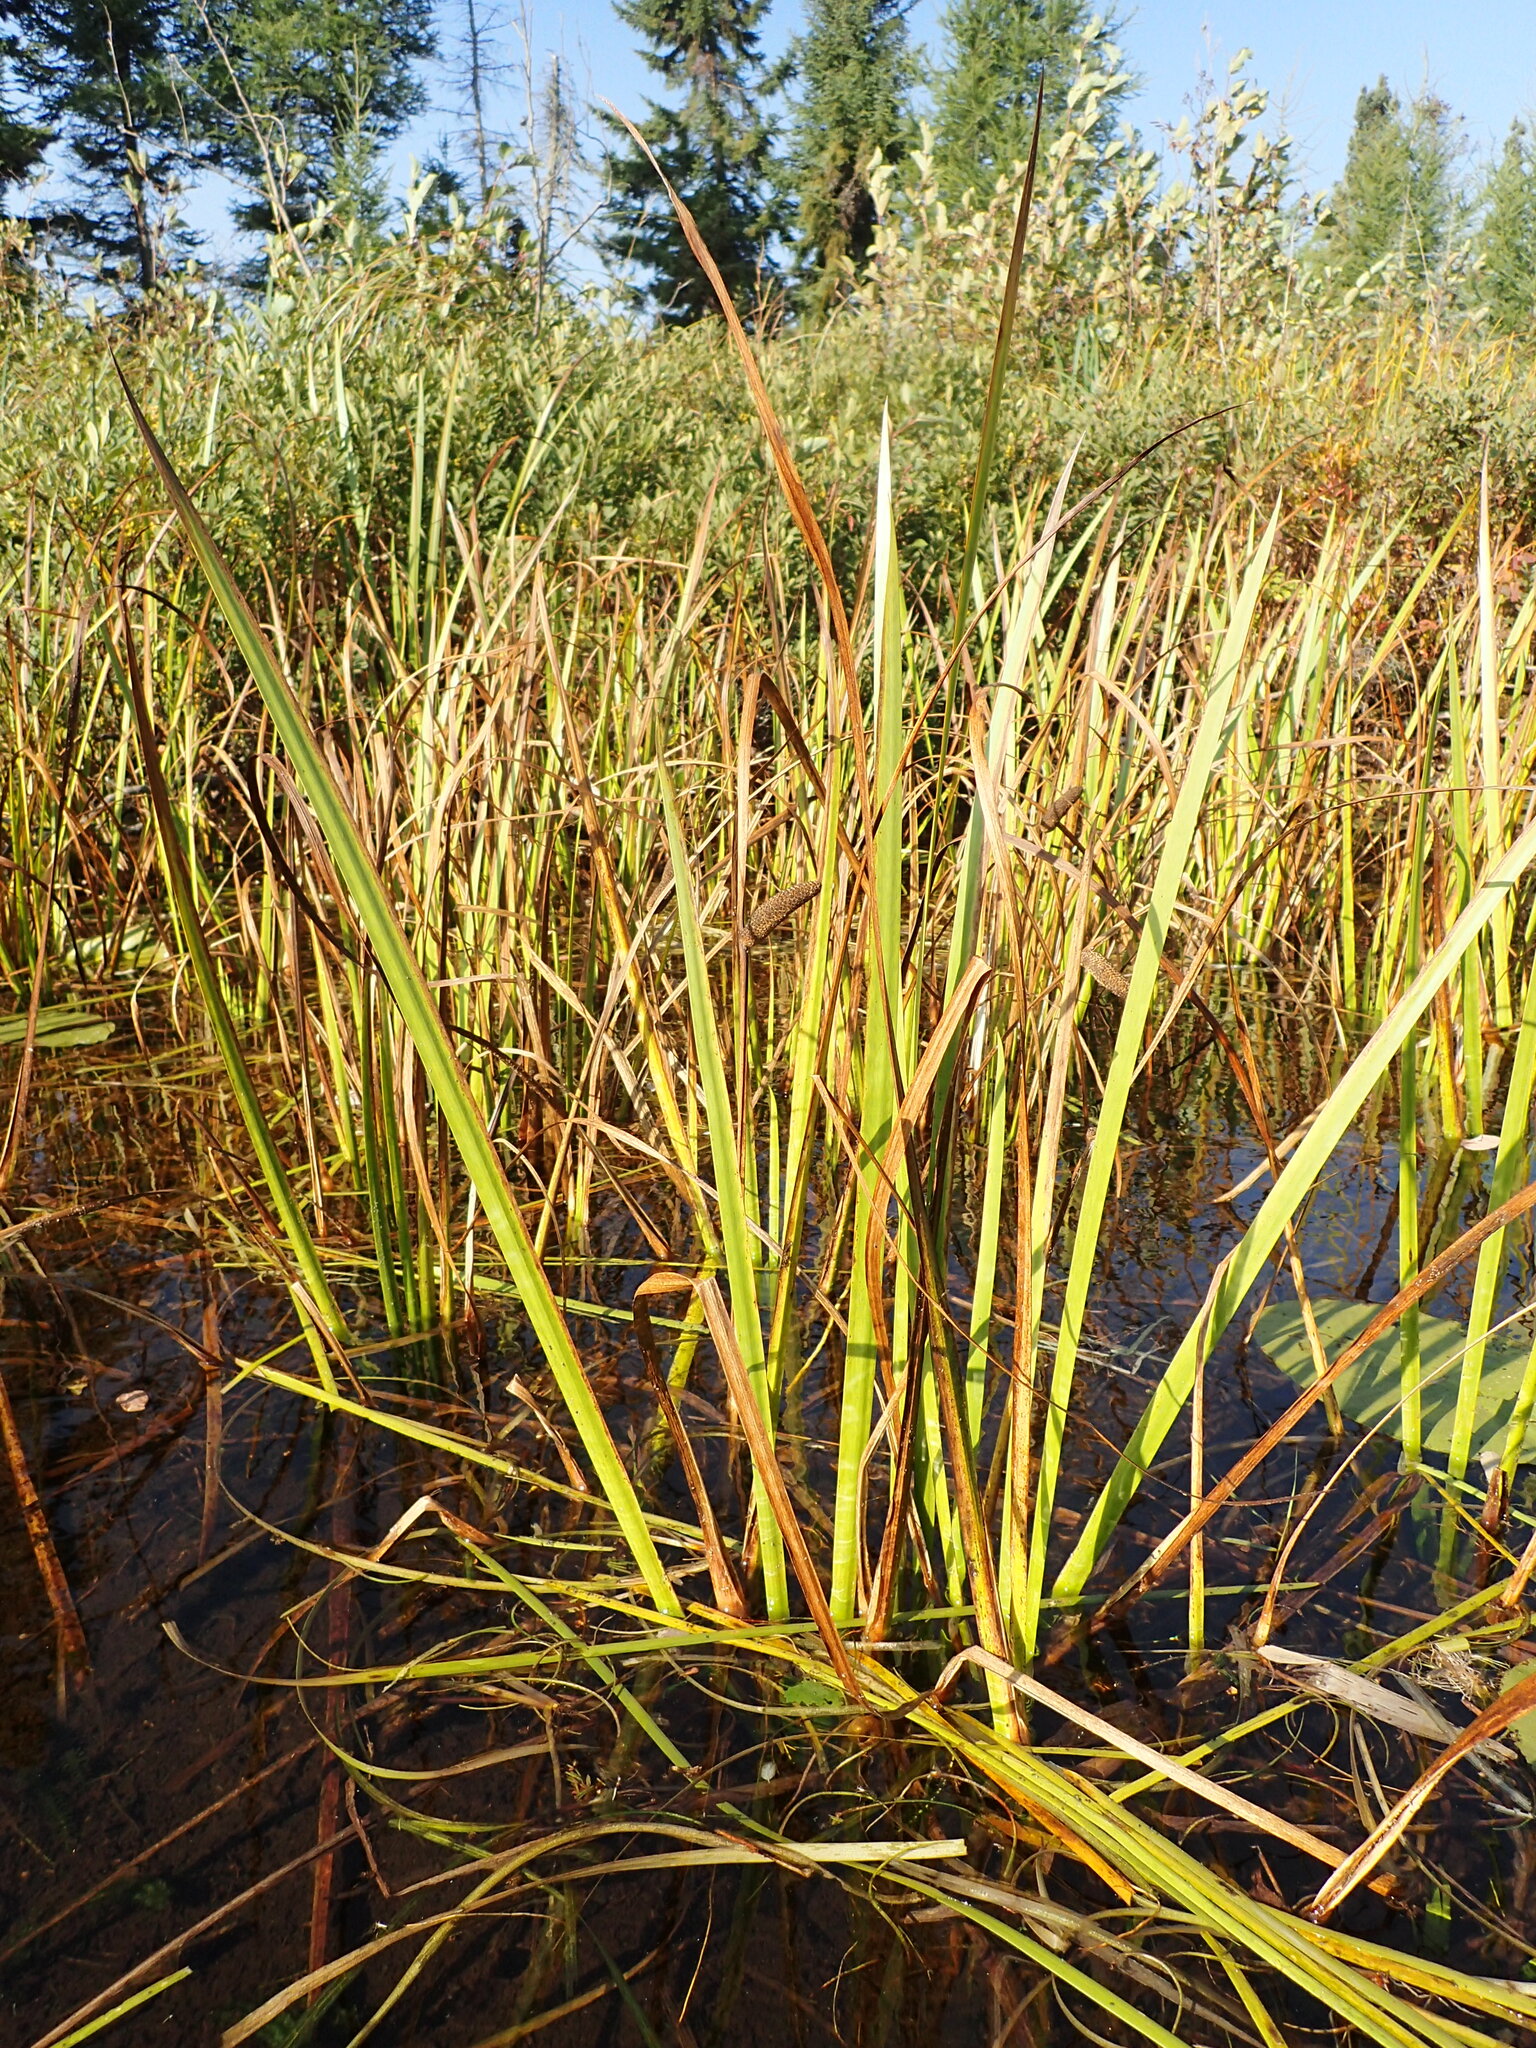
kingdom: Plantae
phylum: Tracheophyta
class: Liliopsida
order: Acorales
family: Acoraceae
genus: Acorus
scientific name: Acorus calamus
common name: Sweet-flag
